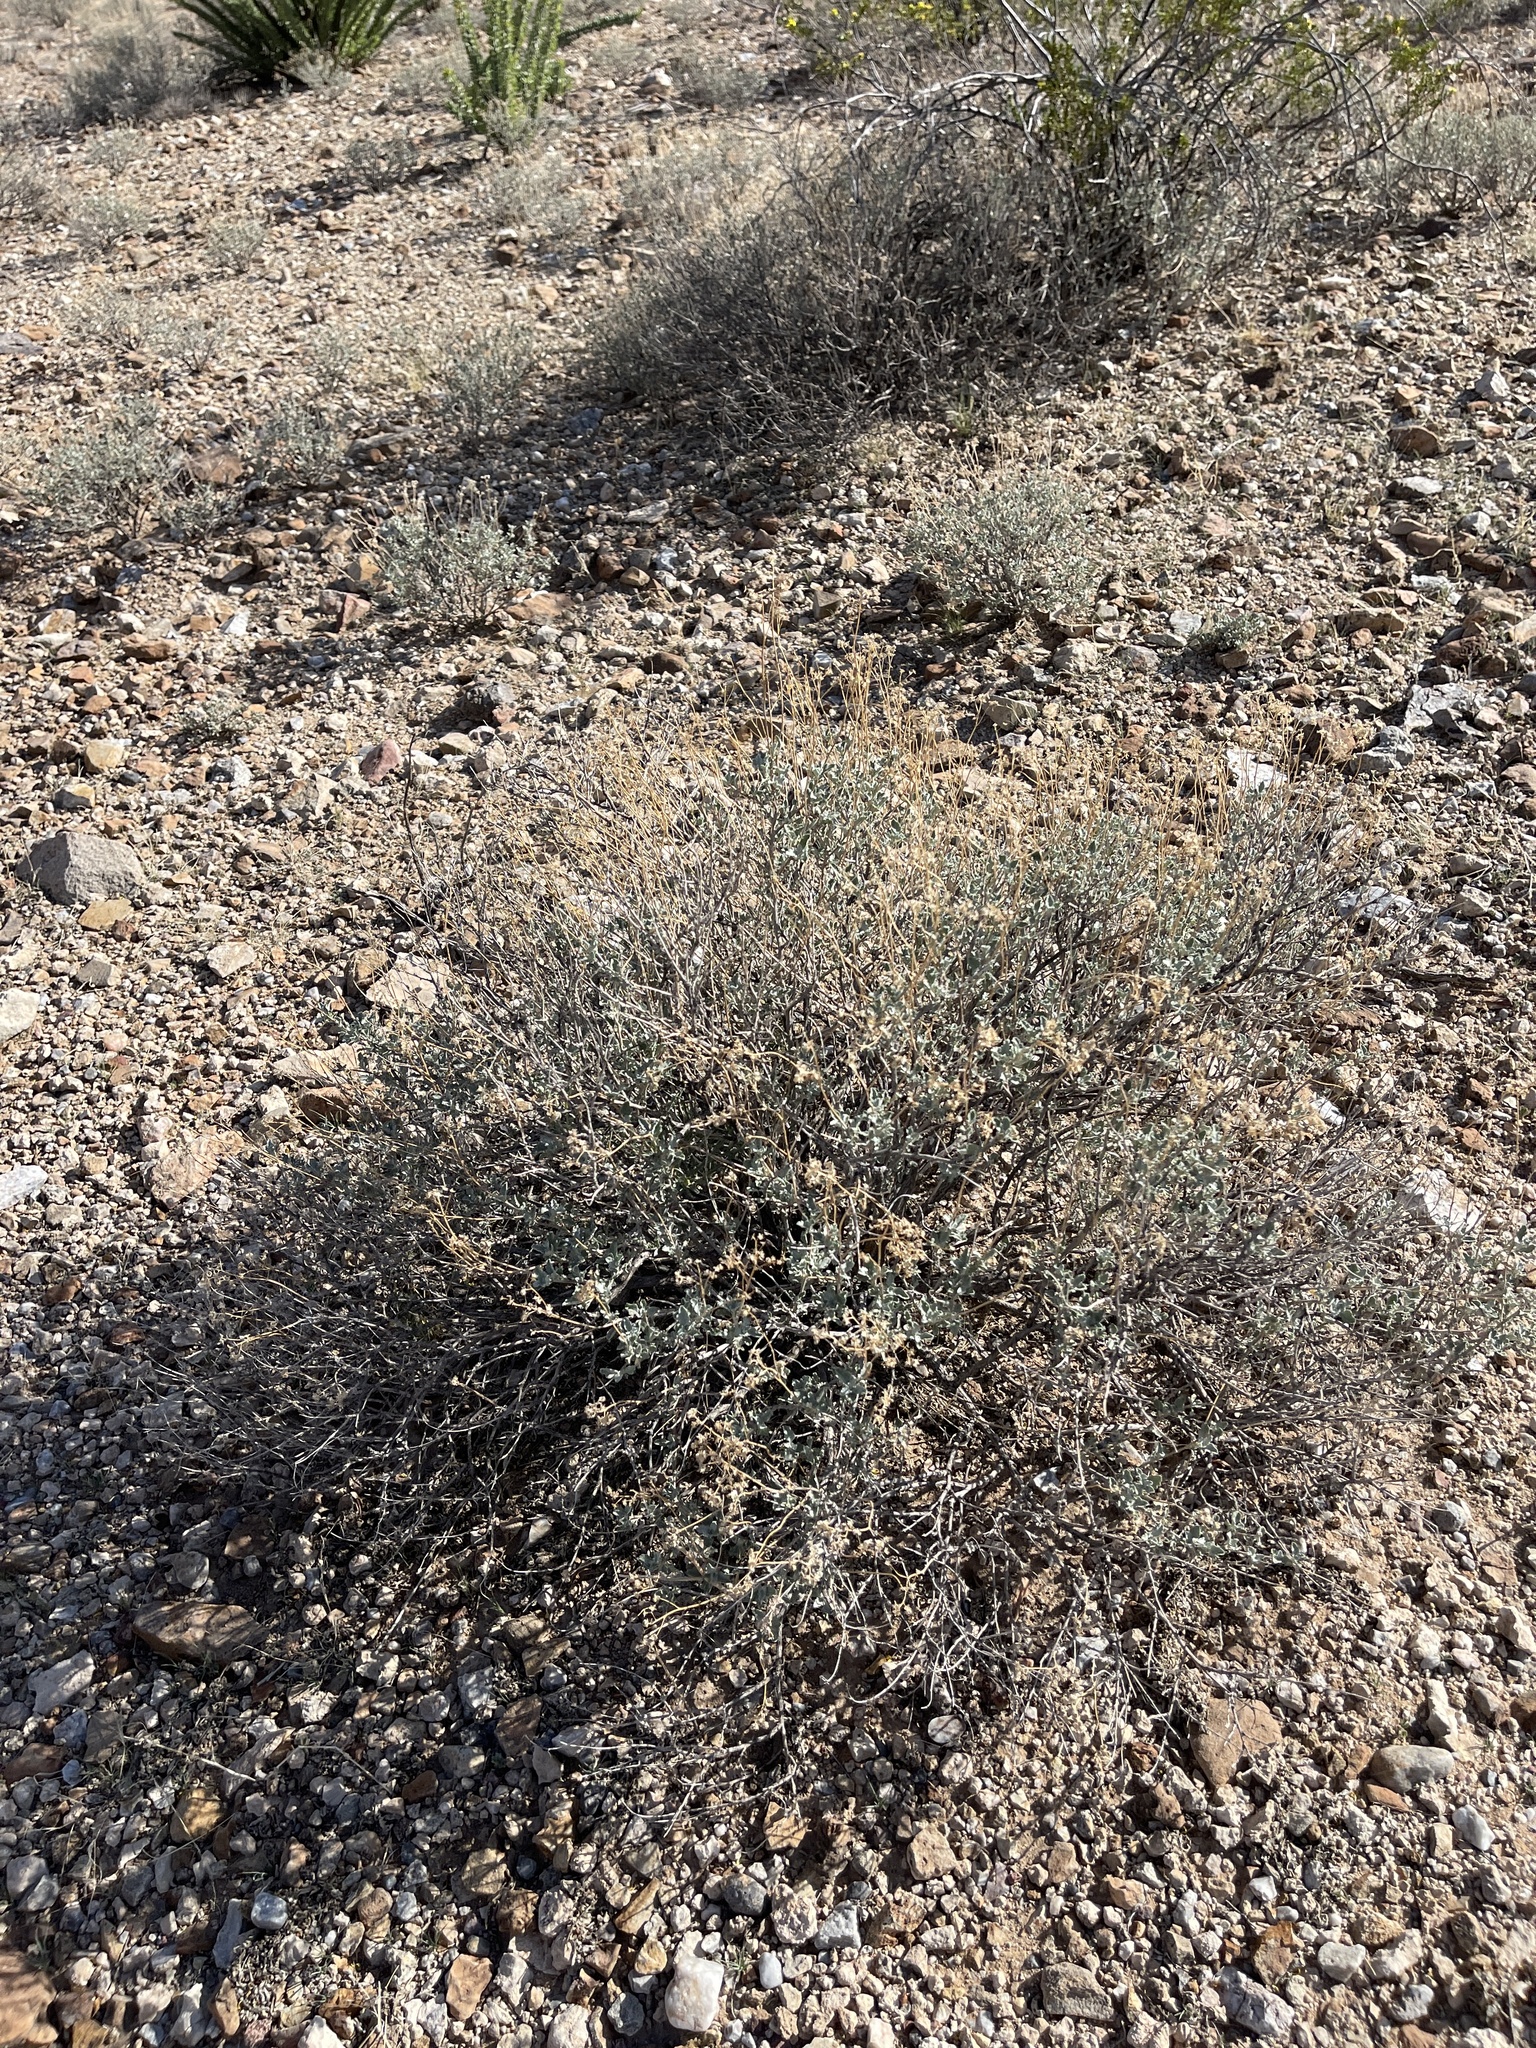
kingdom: Plantae
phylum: Tracheophyta
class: Magnoliopsida
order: Asterales
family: Asteraceae
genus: Parthenium
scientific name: Parthenium incanum
